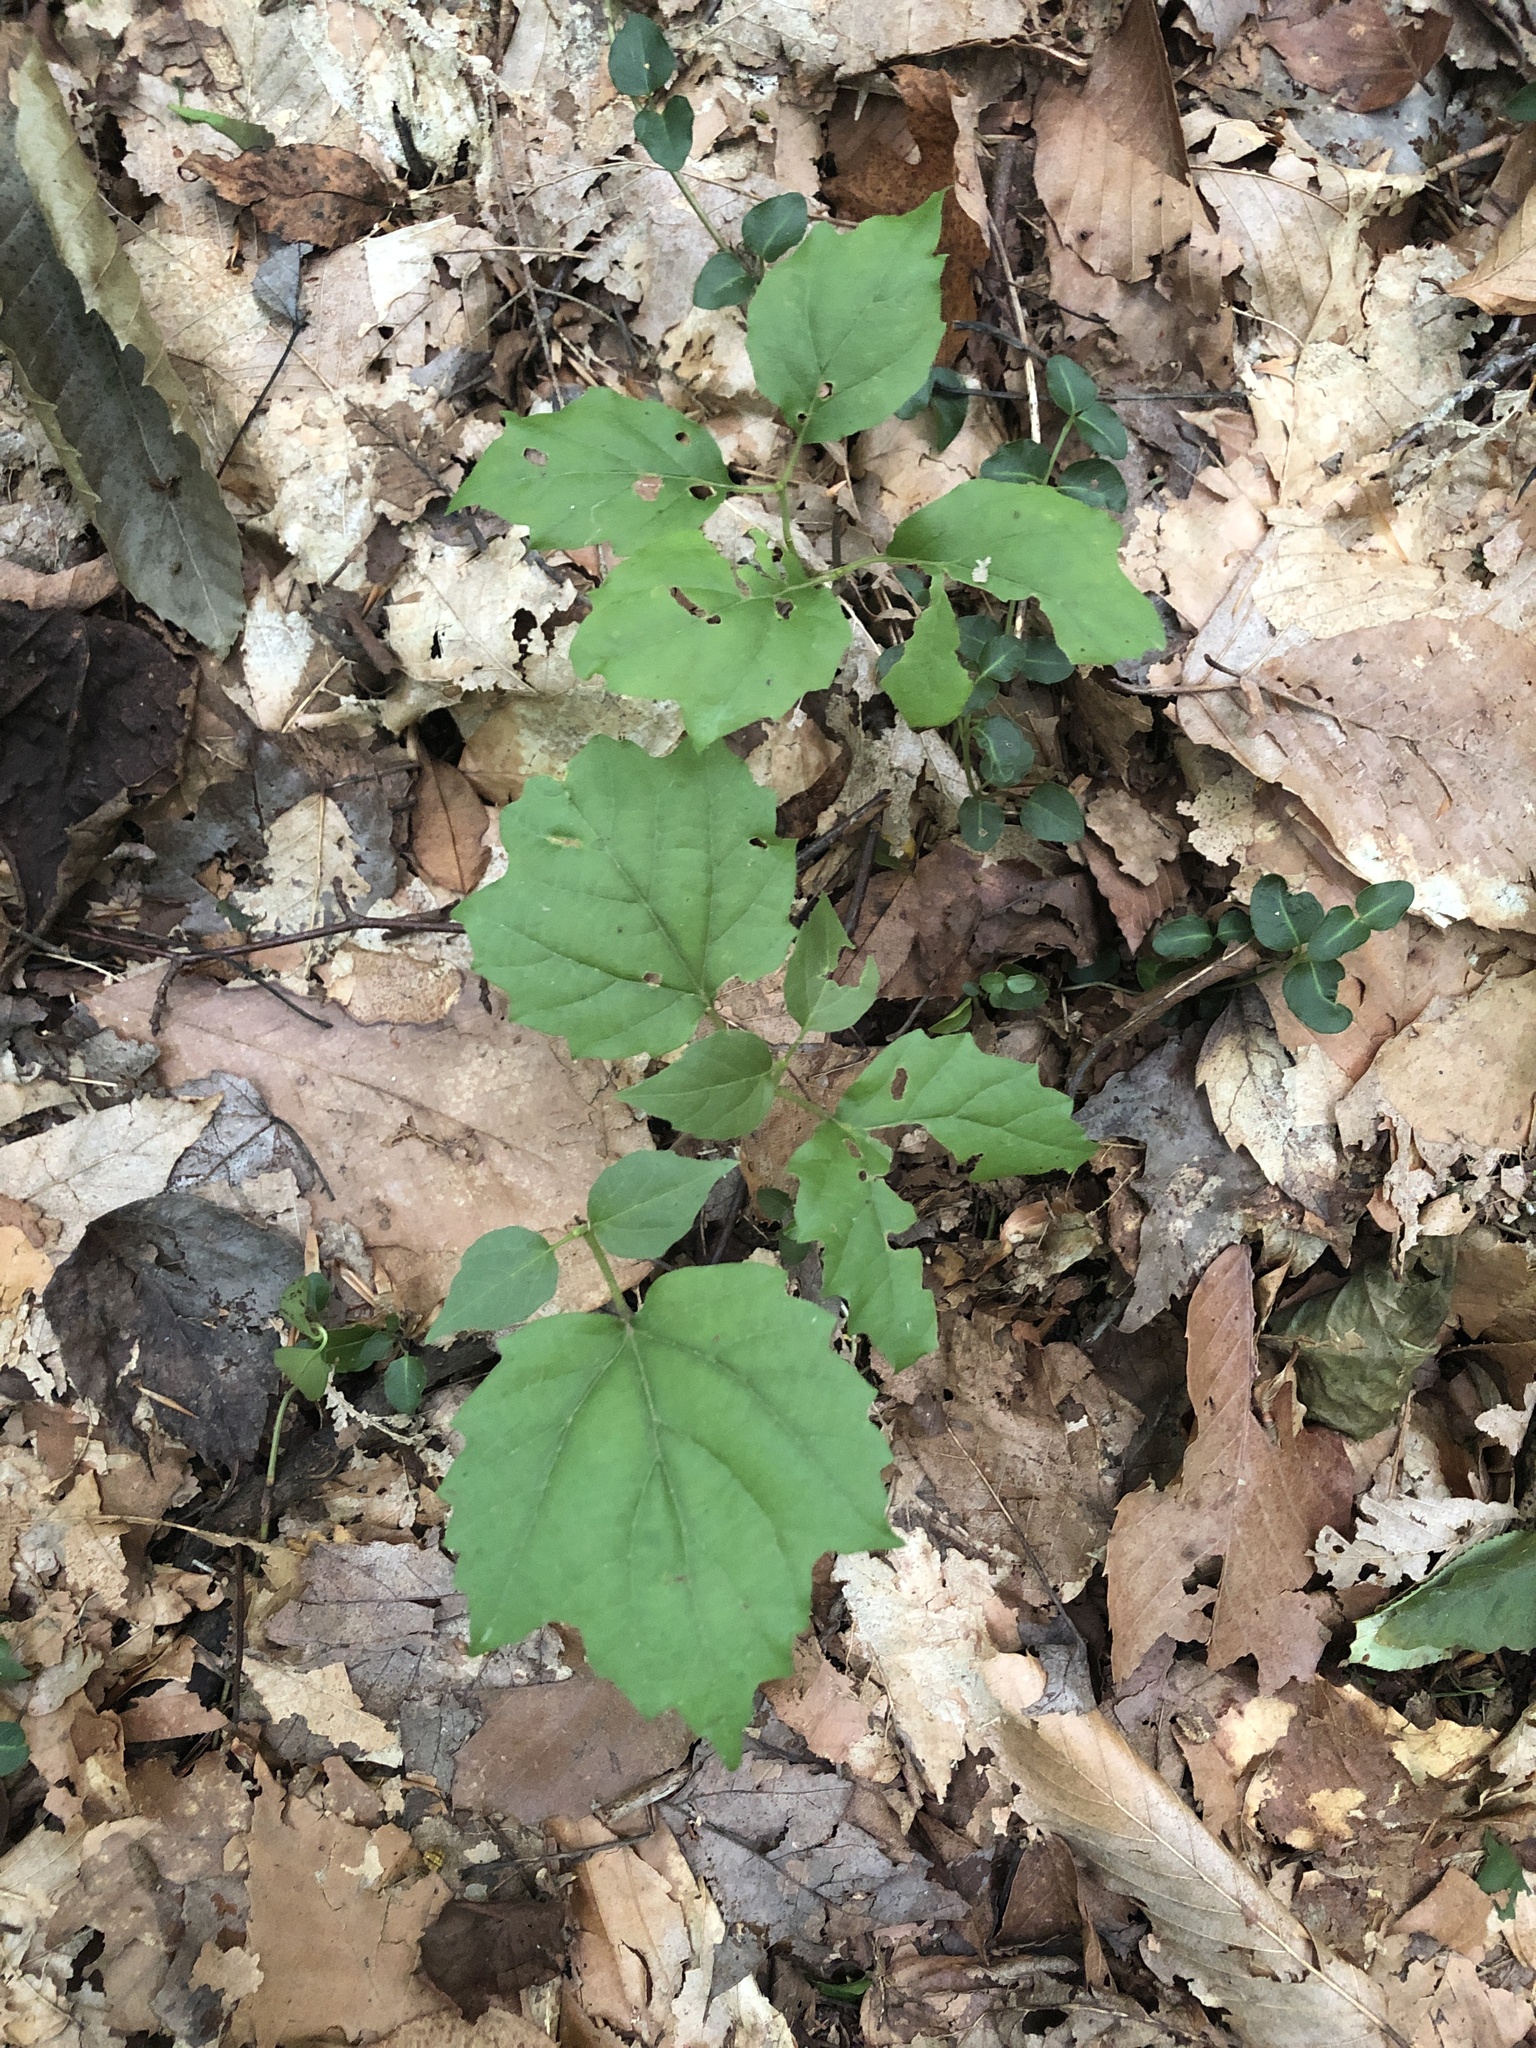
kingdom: Plantae
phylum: Tracheophyta
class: Magnoliopsida
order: Dipsacales
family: Viburnaceae
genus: Viburnum
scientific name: Viburnum acerifolium
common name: Dockmackie
